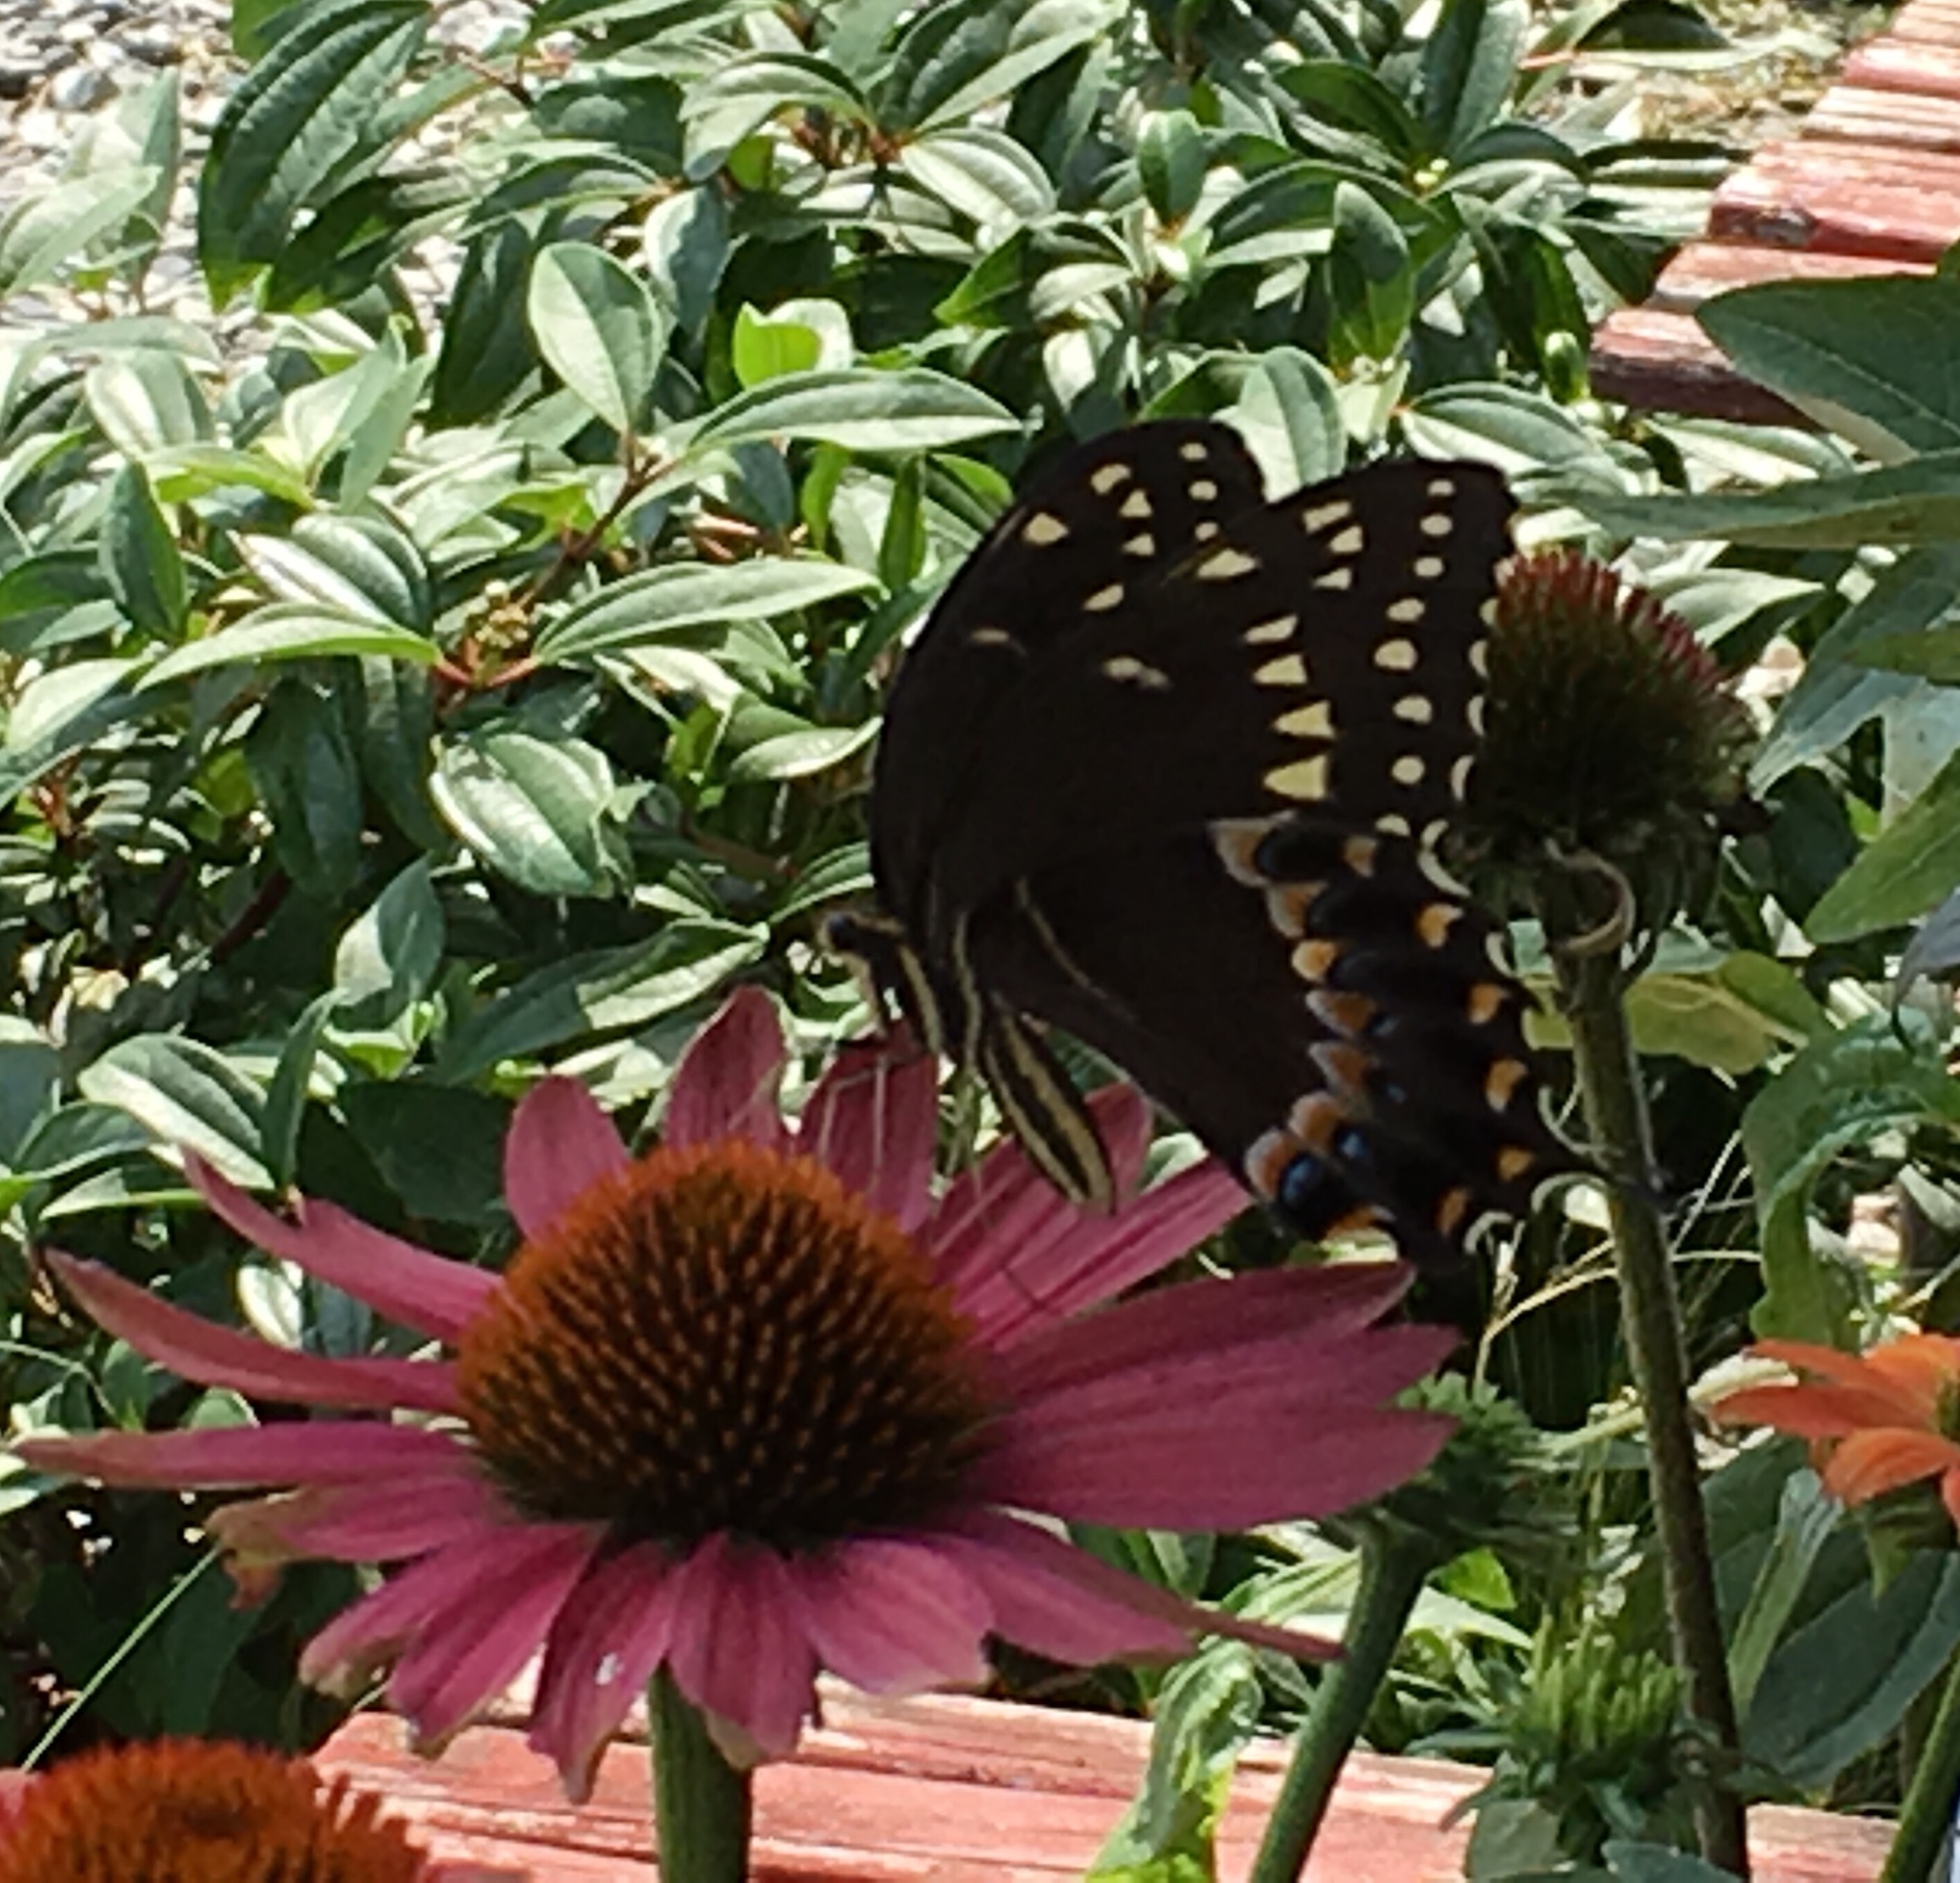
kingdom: Animalia
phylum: Arthropoda
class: Insecta
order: Lepidoptera
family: Papilionidae
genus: Papilio
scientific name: Papilio palamedes
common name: Palamedes swallowtail
